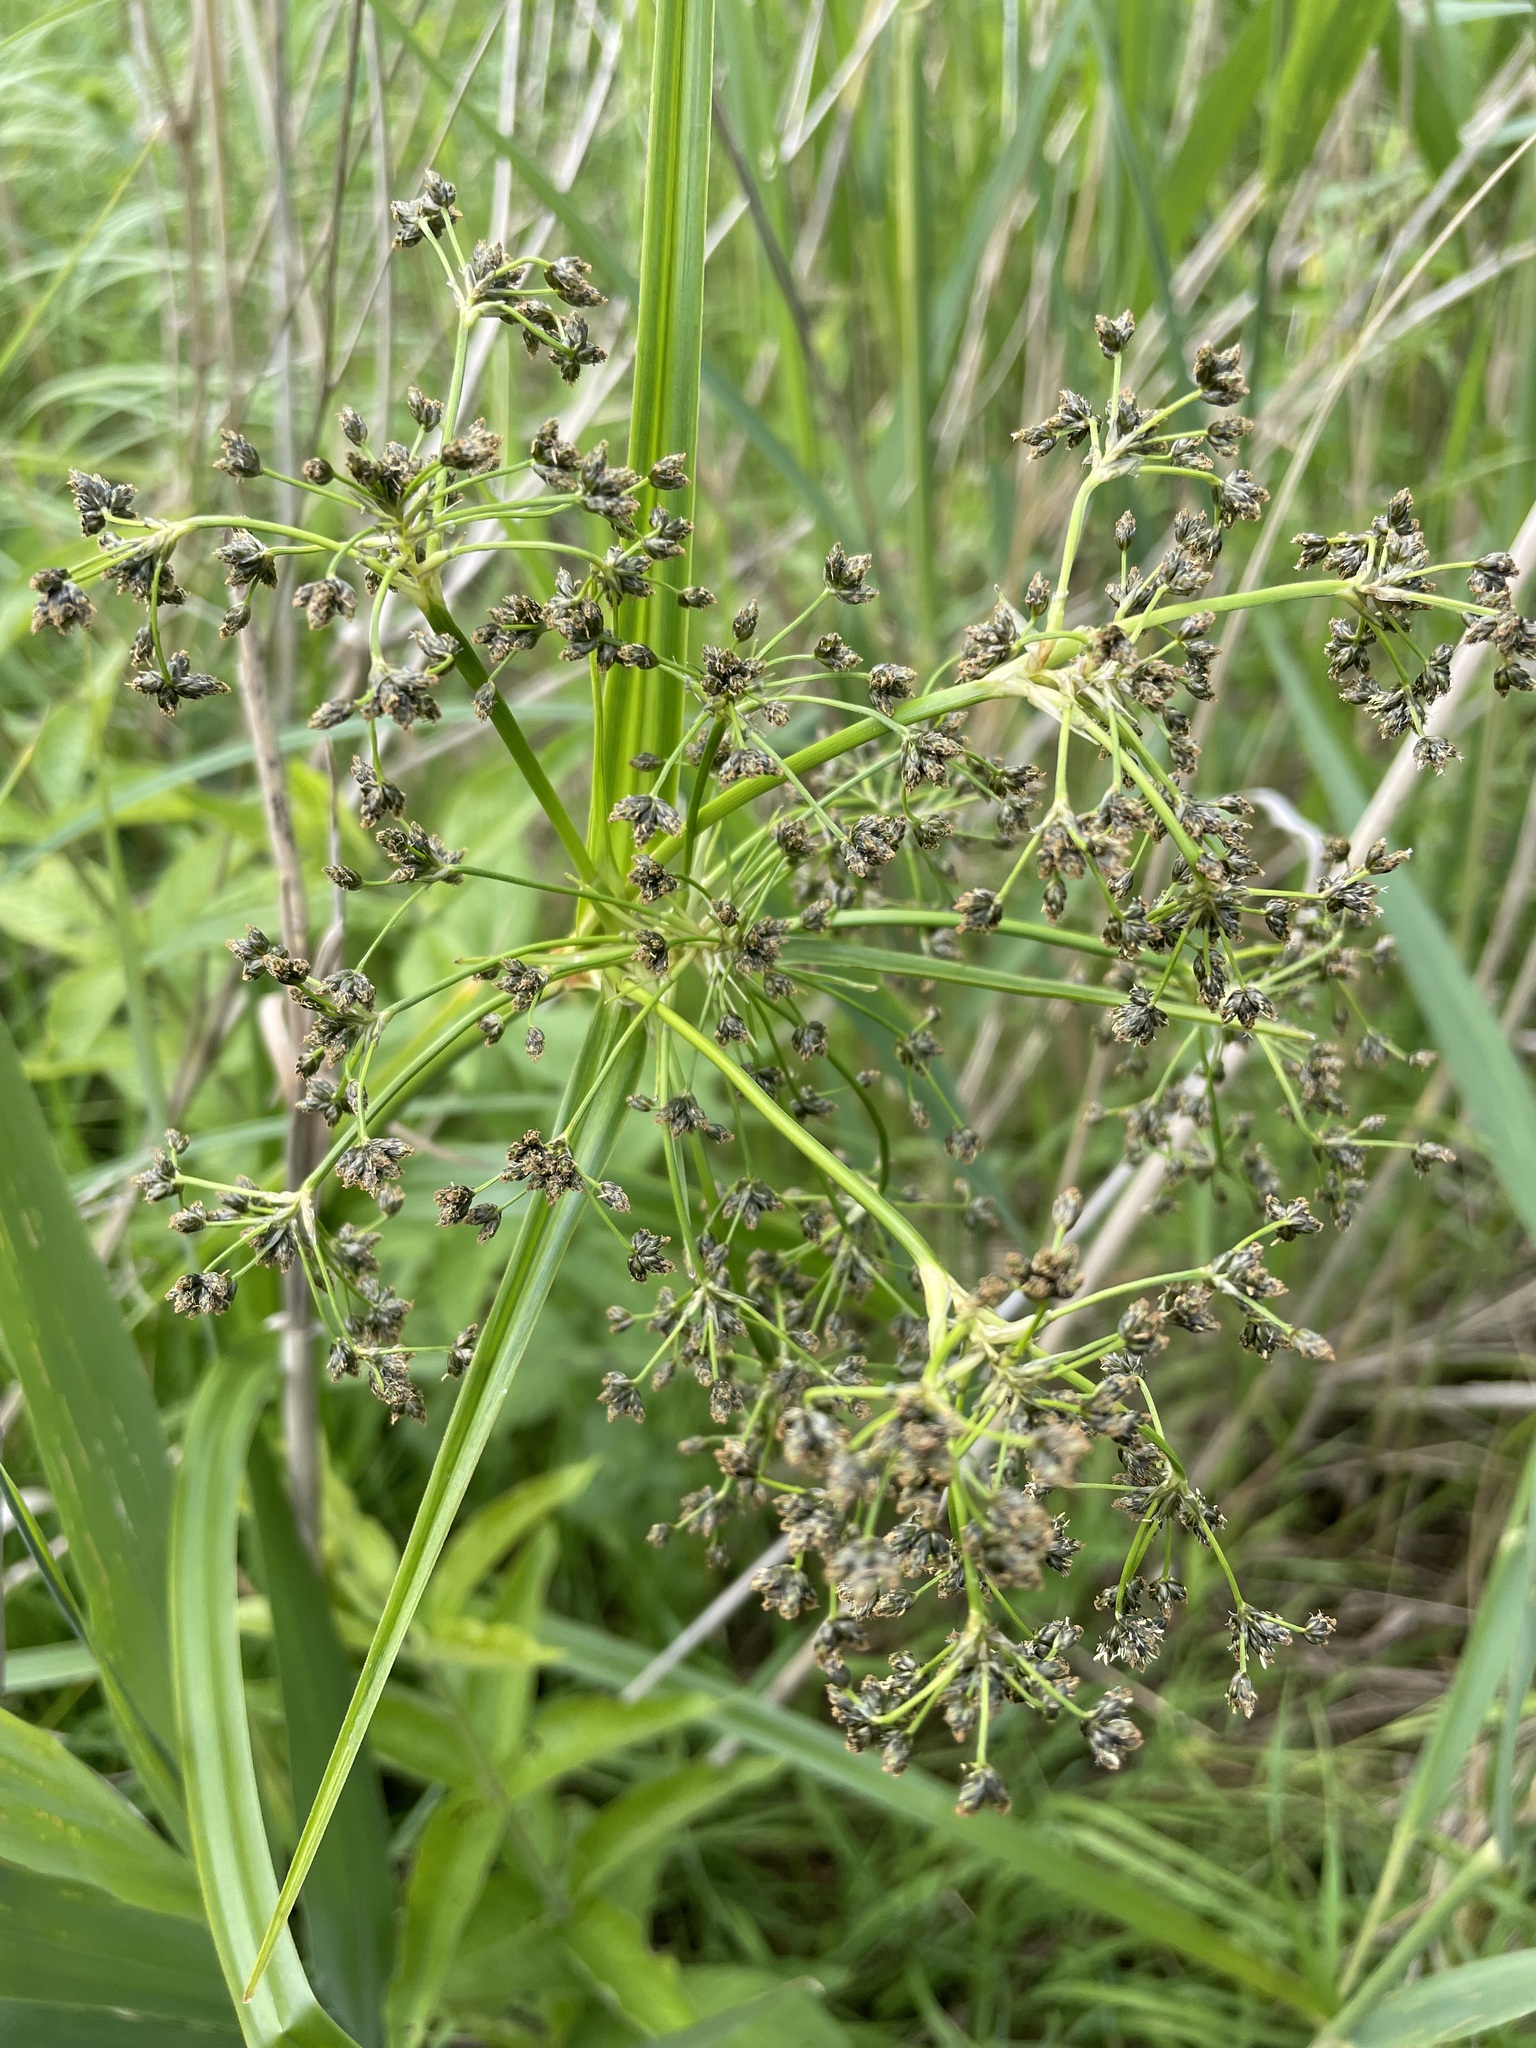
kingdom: Plantae
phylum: Tracheophyta
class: Liliopsida
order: Poales
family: Cyperaceae
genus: Scirpus
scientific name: Scirpus sylvaticus
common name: Wood club-rush
